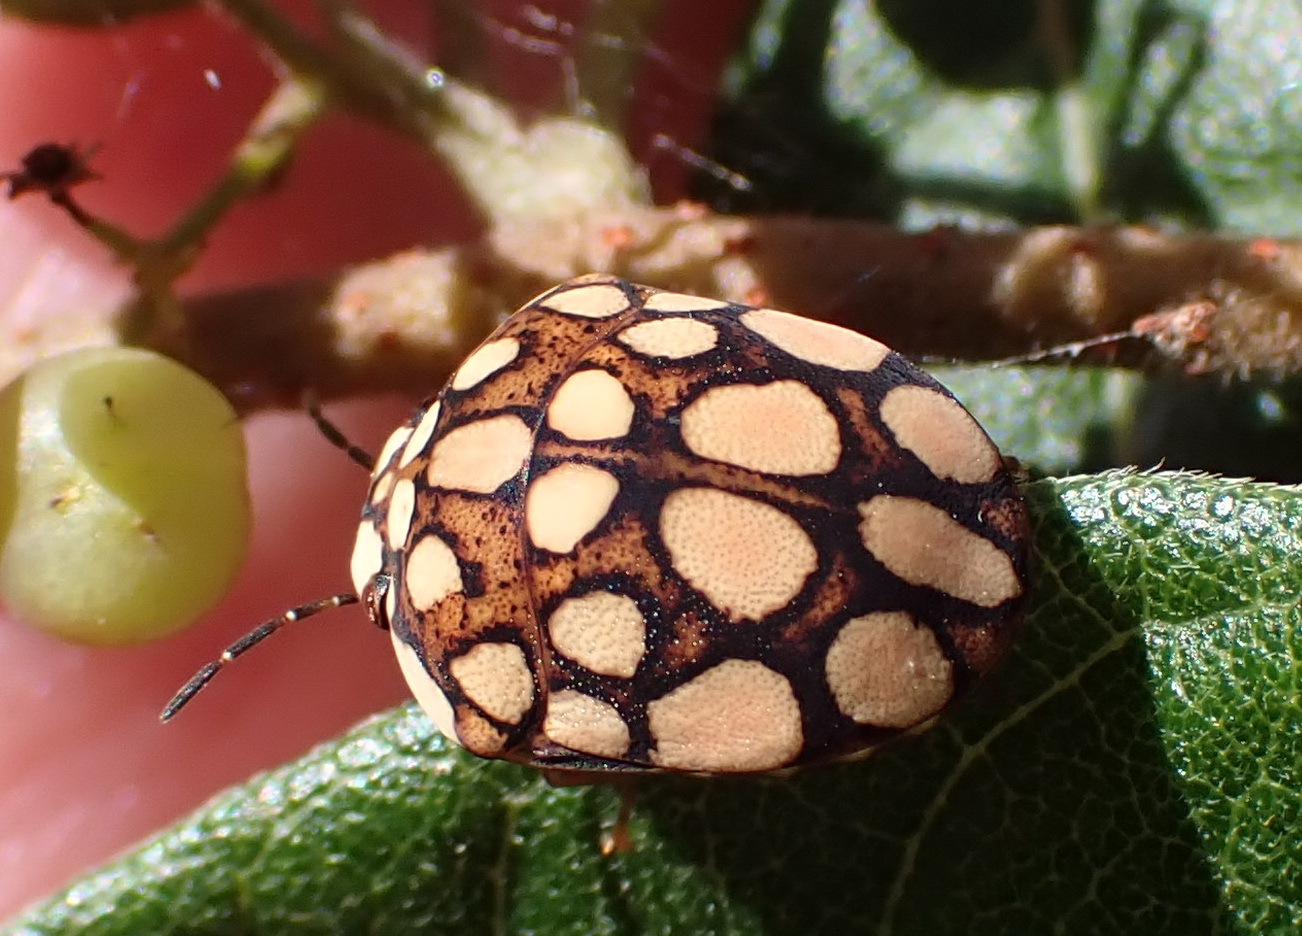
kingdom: Animalia
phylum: Arthropoda
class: Insecta
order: Hemiptera
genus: Steganocerus
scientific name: Steganocerus multipunctatus
